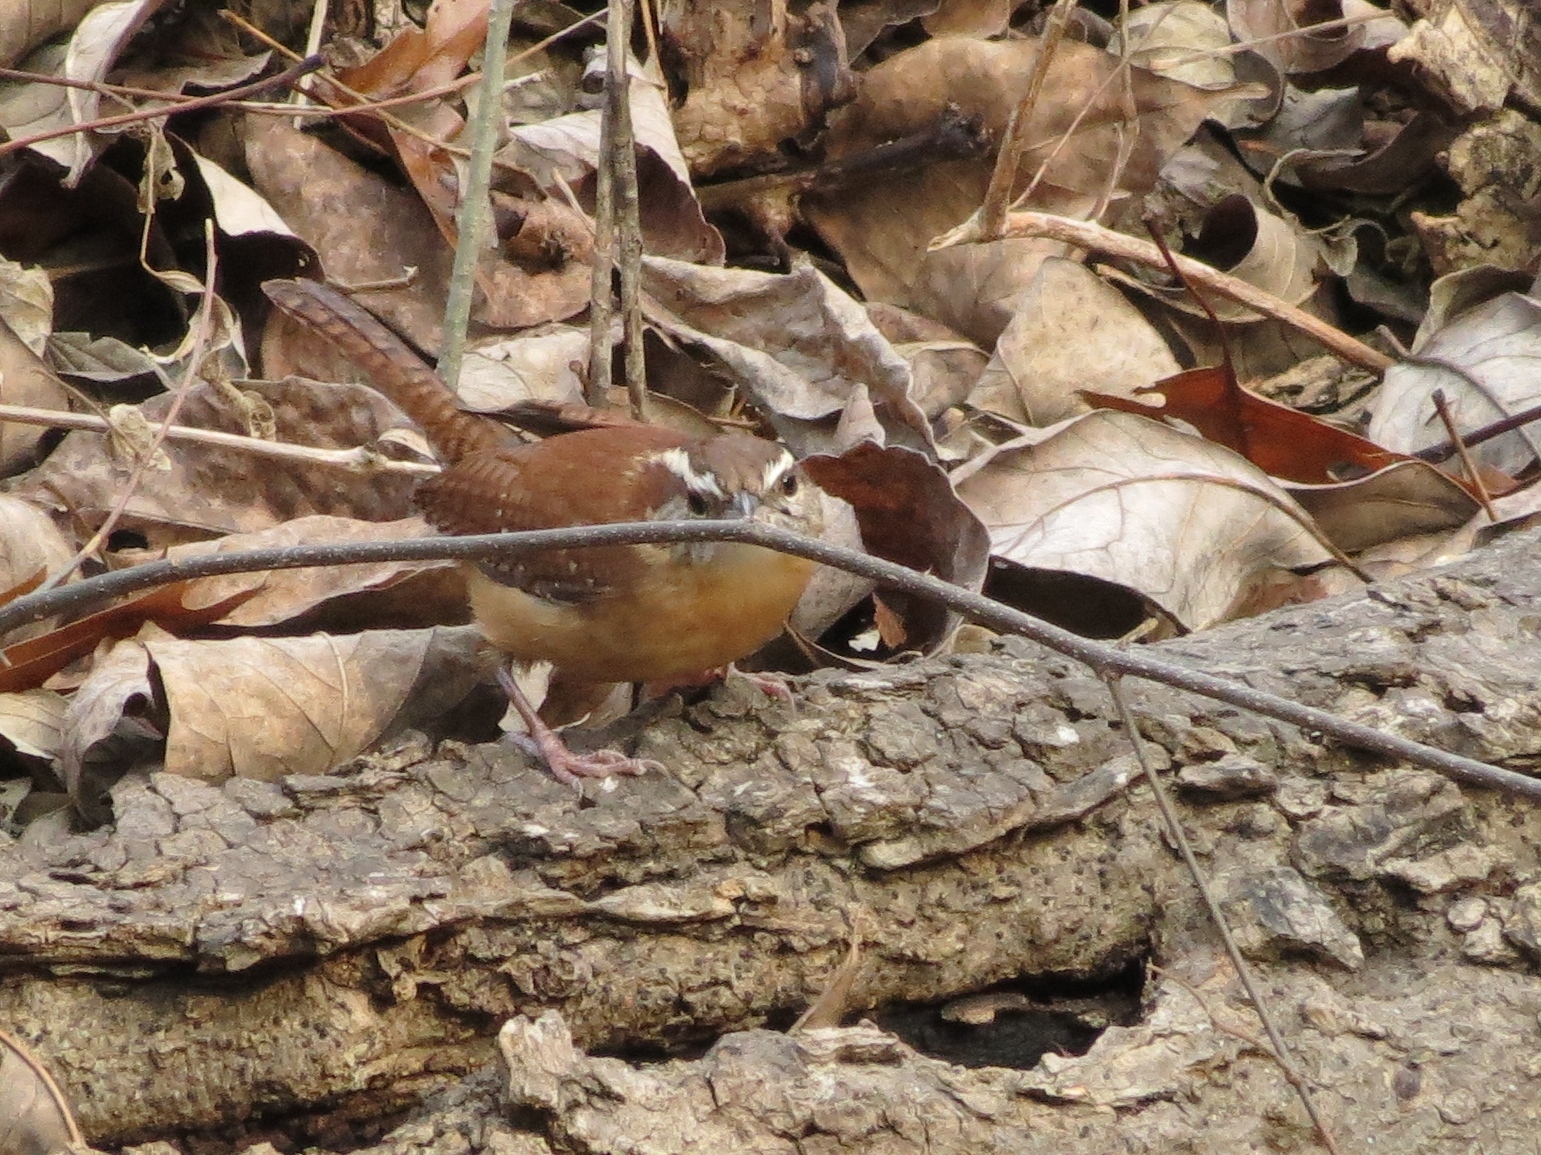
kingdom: Animalia
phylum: Chordata
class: Aves
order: Passeriformes
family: Troglodytidae
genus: Thryothorus
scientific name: Thryothorus ludovicianus
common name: Carolina wren
